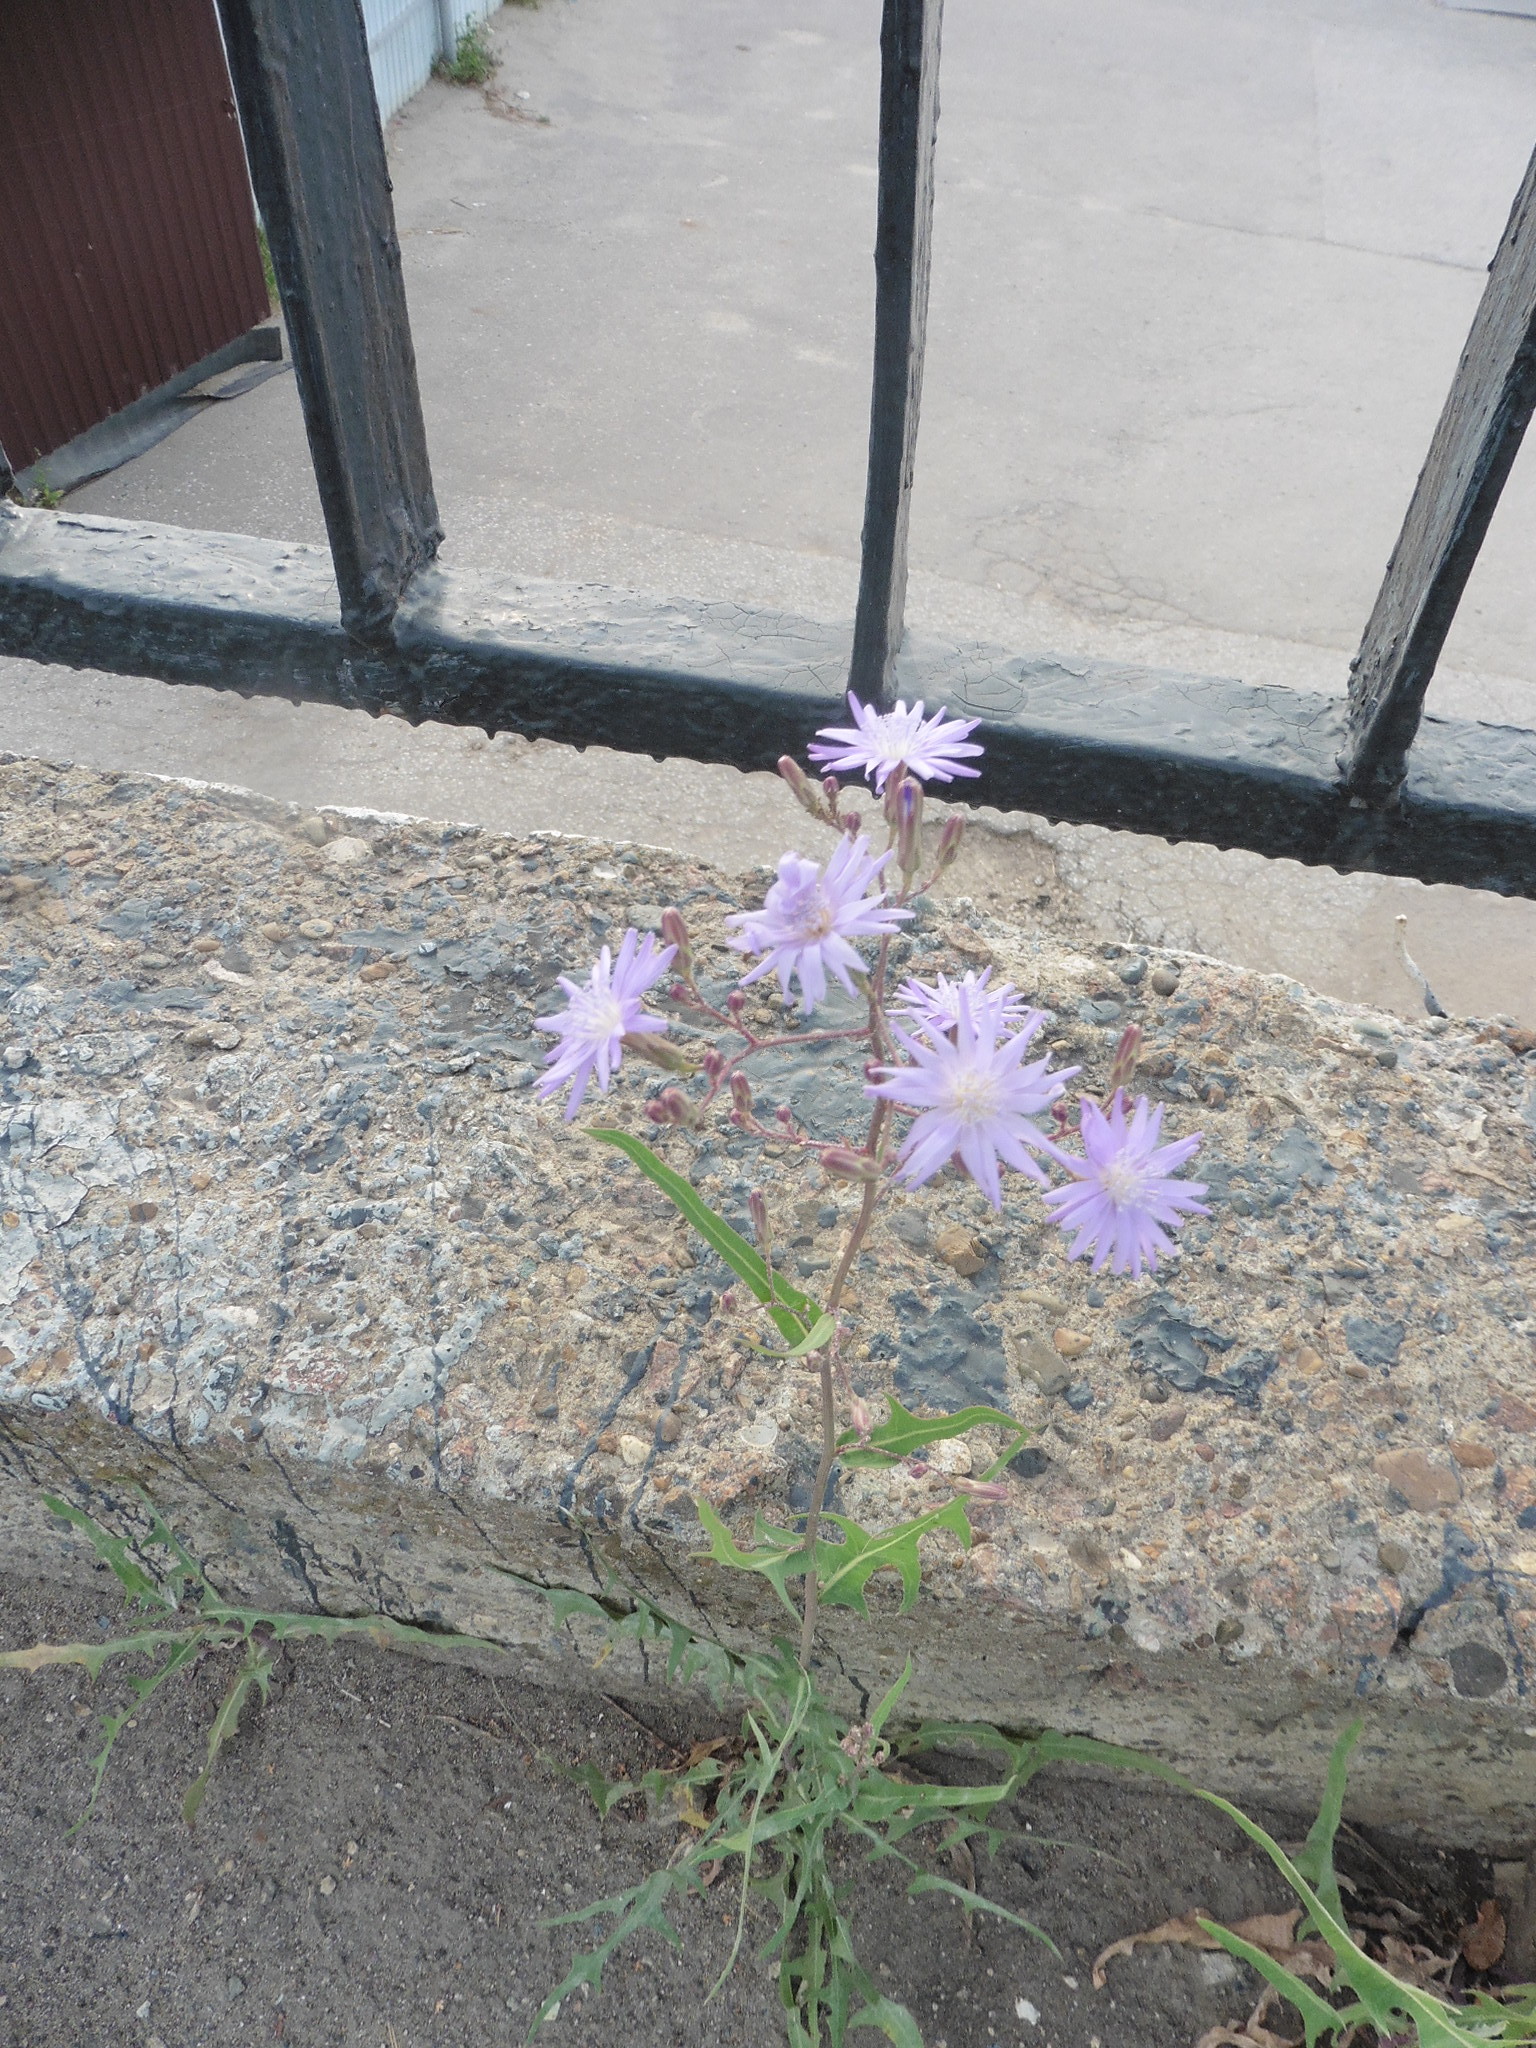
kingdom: Plantae
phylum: Tracheophyta
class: Magnoliopsida
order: Asterales
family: Asteraceae
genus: Lactuca
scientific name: Lactuca tatarica
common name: Blue lettuce
